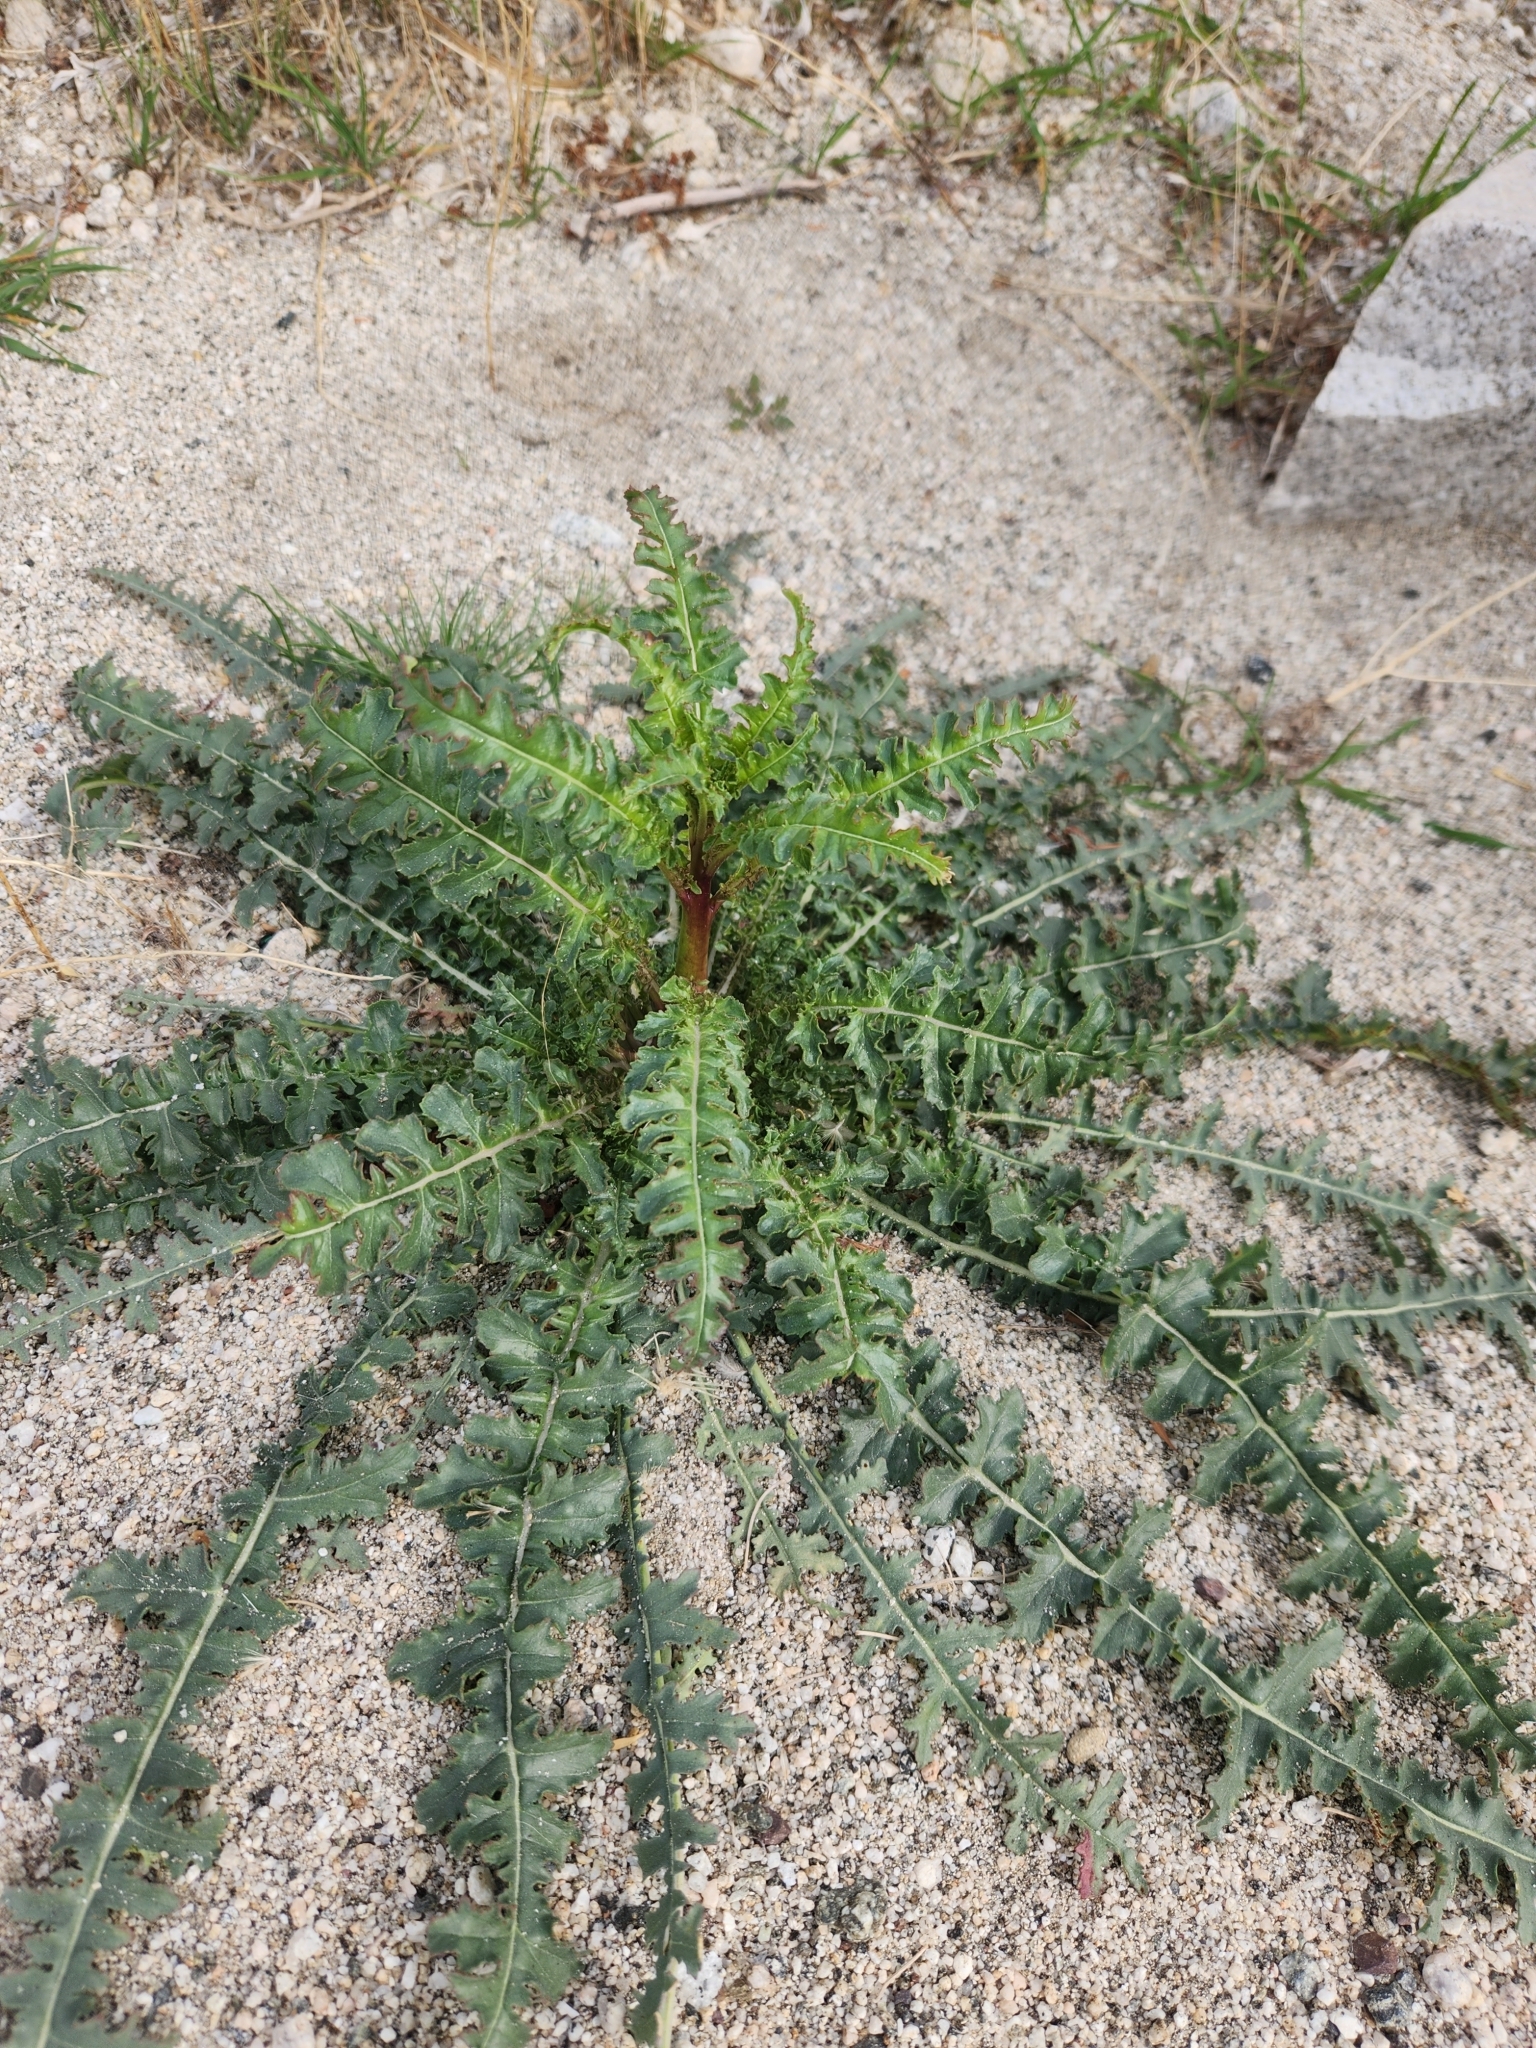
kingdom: Plantae
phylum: Tracheophyta
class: Magnoliopsida
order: Myrtales
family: Onagraceae
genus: Eulobus
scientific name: Eulobus californicus
